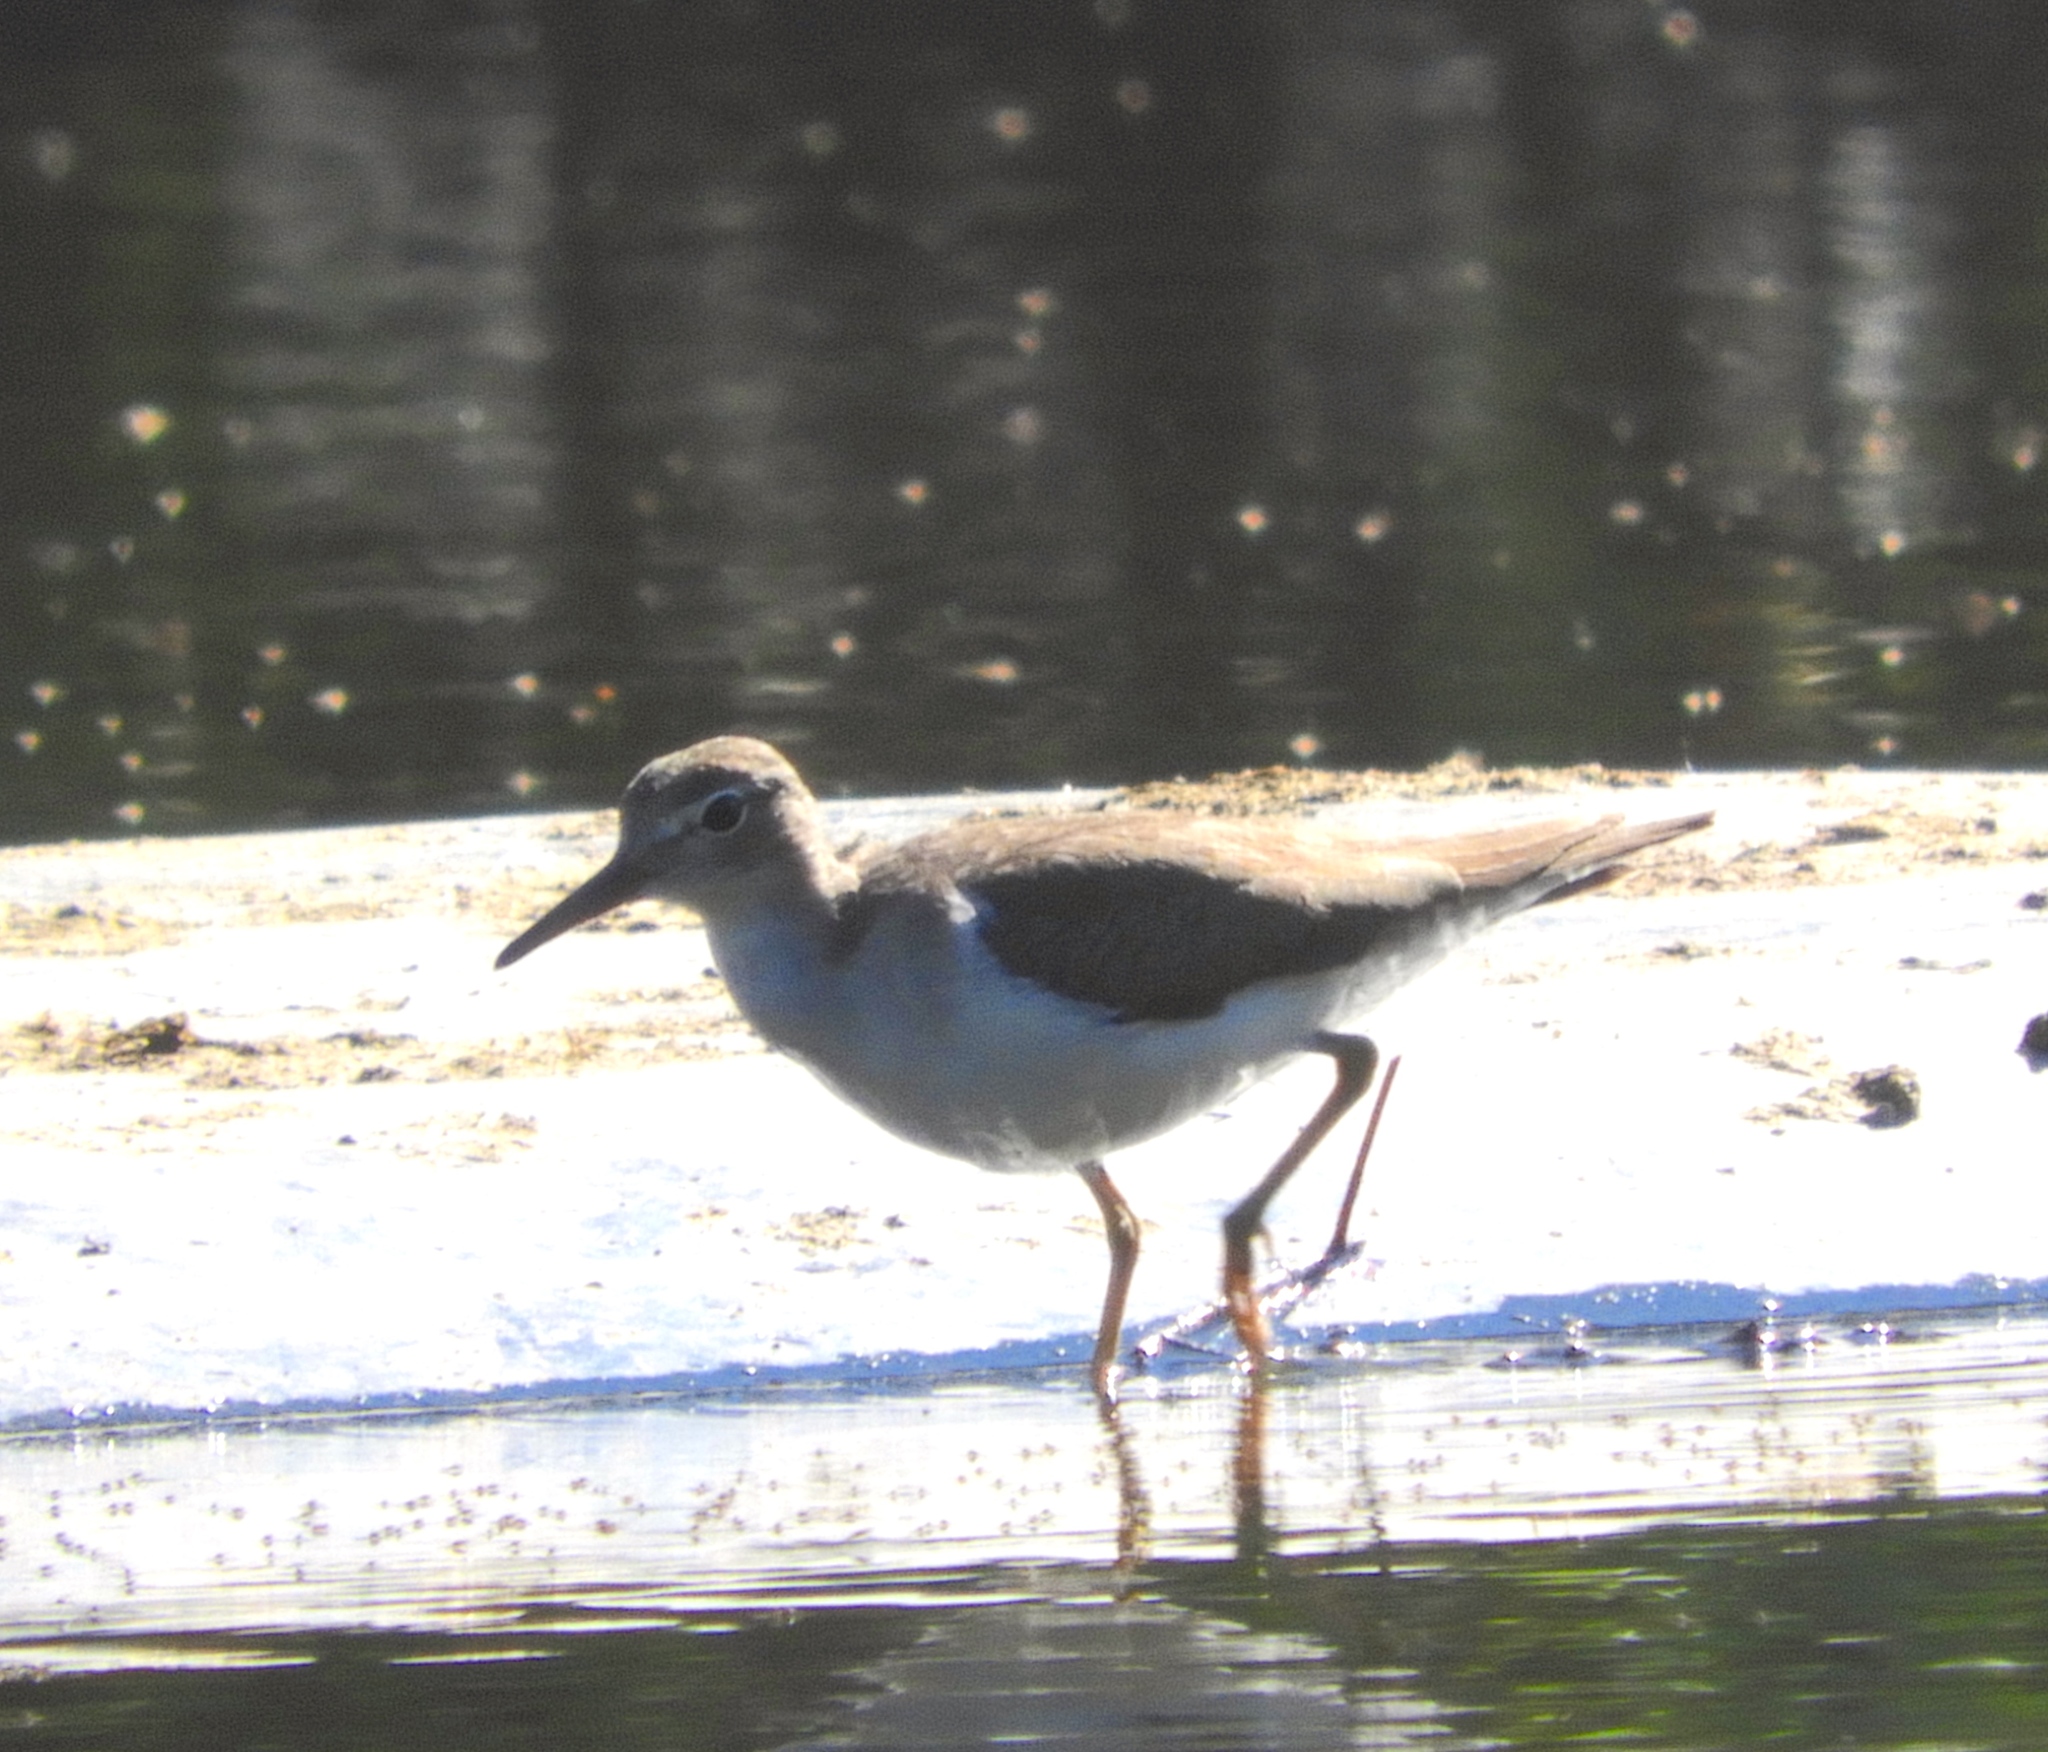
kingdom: Animalia
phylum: Chordata
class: Aves
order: Charadriiformes
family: Scolopacidae
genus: Actitis
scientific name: Actitis macularius
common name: Spotted sandpiper
